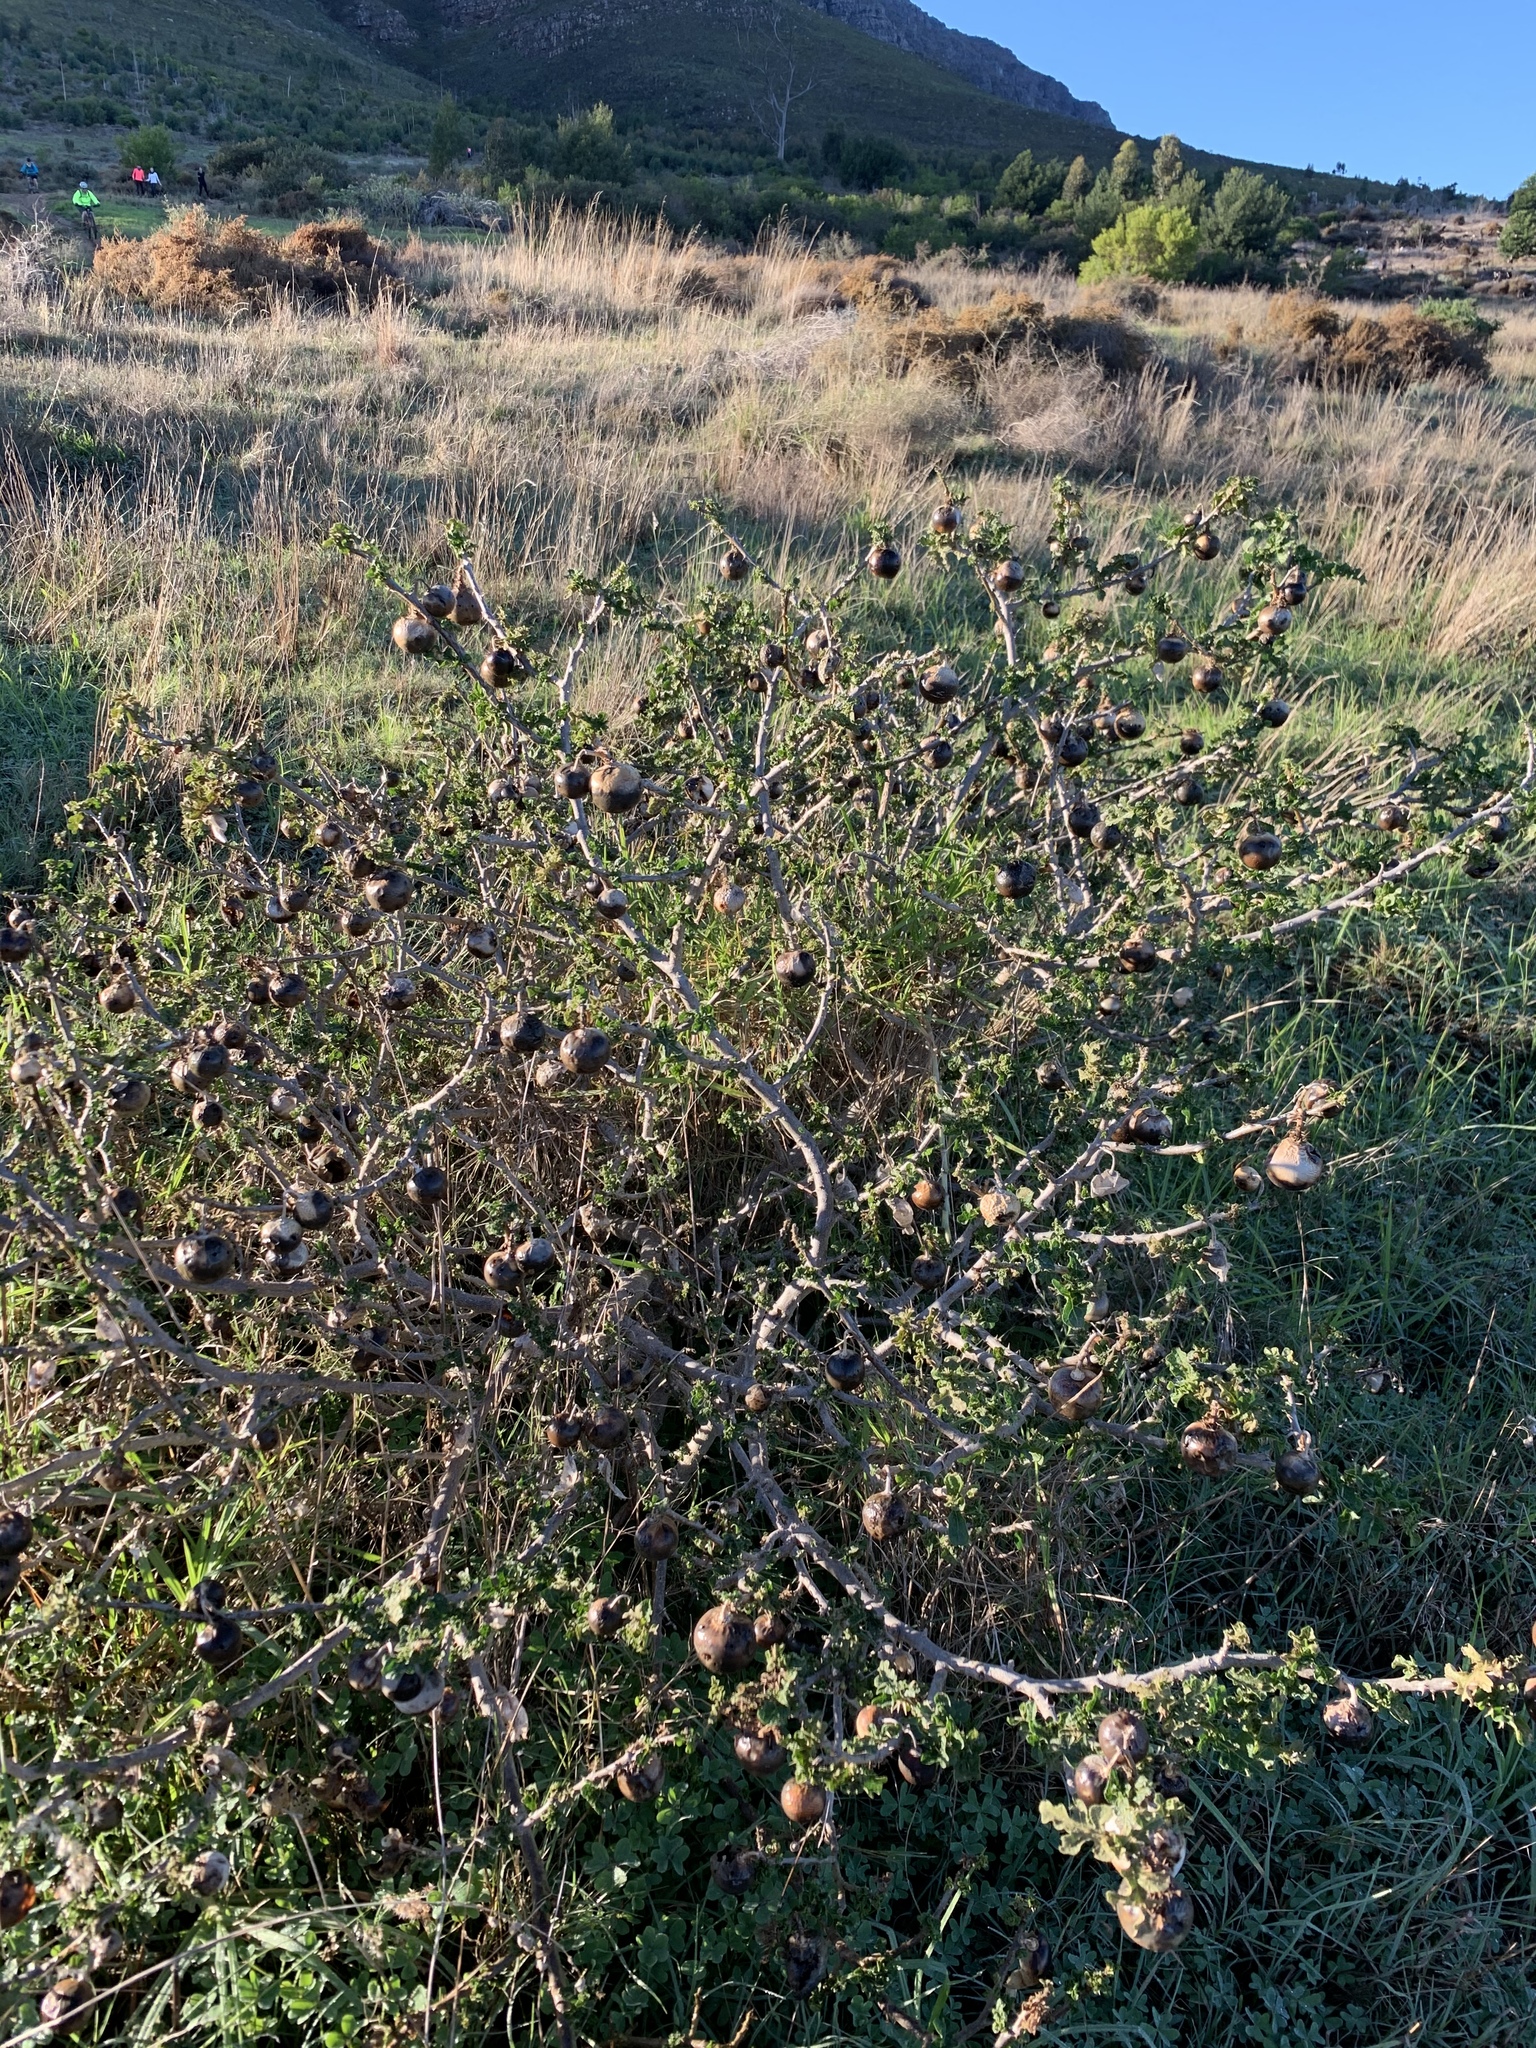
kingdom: Plantae
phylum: Tracheophyta
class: Magnoliopsida
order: Solanales
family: Solanaceae
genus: Solanum
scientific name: Solanum linnaeanum
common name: Nightshade
